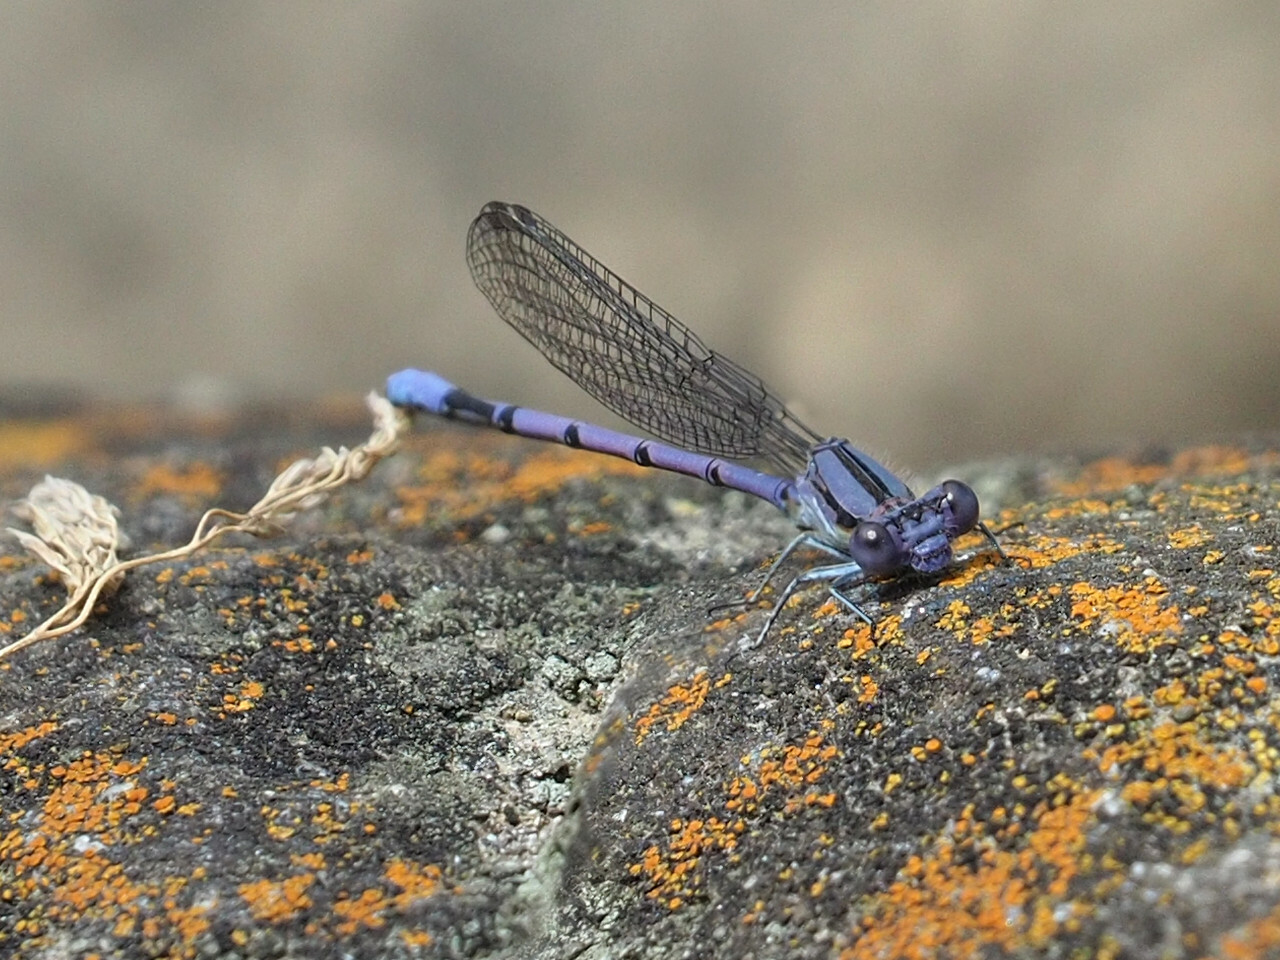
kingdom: Animalia
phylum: Arthropoda
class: Insecta
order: Odonata
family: Coenagrionidae
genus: Argia
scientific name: Argia fumipennis
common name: Variable dancer
